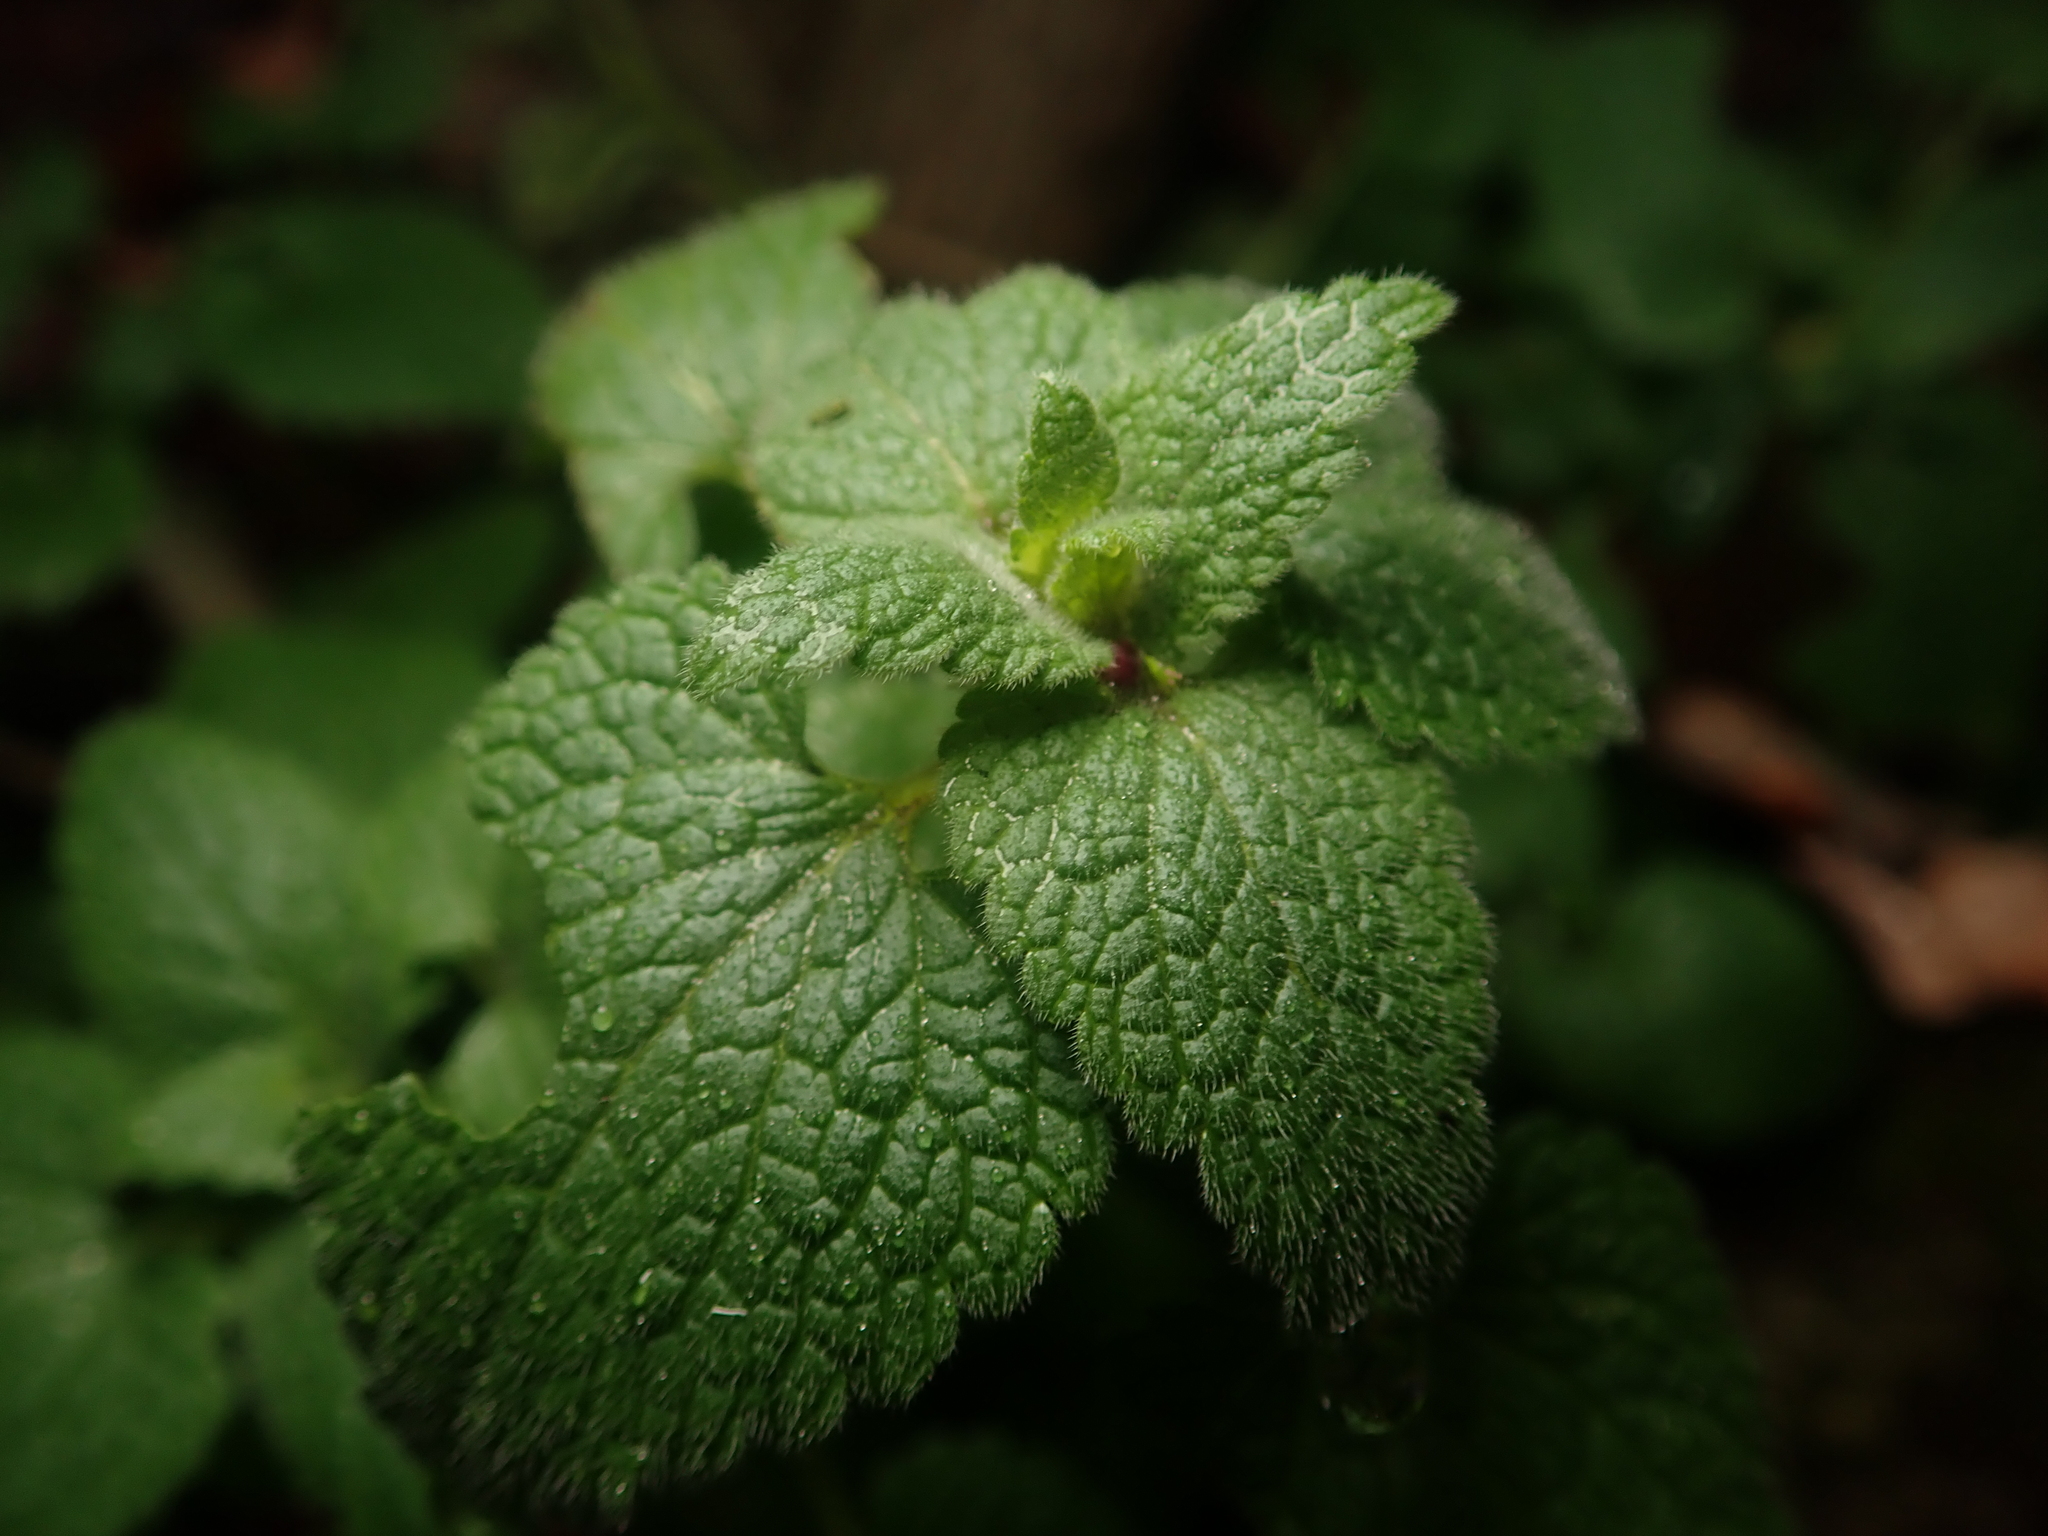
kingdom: Plantae
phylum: Tracheophyta
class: Magnoliopsida
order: Lamiales
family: Lamiaceae
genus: Lamium
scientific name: Lamium purpureum
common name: Red dead-nettle
